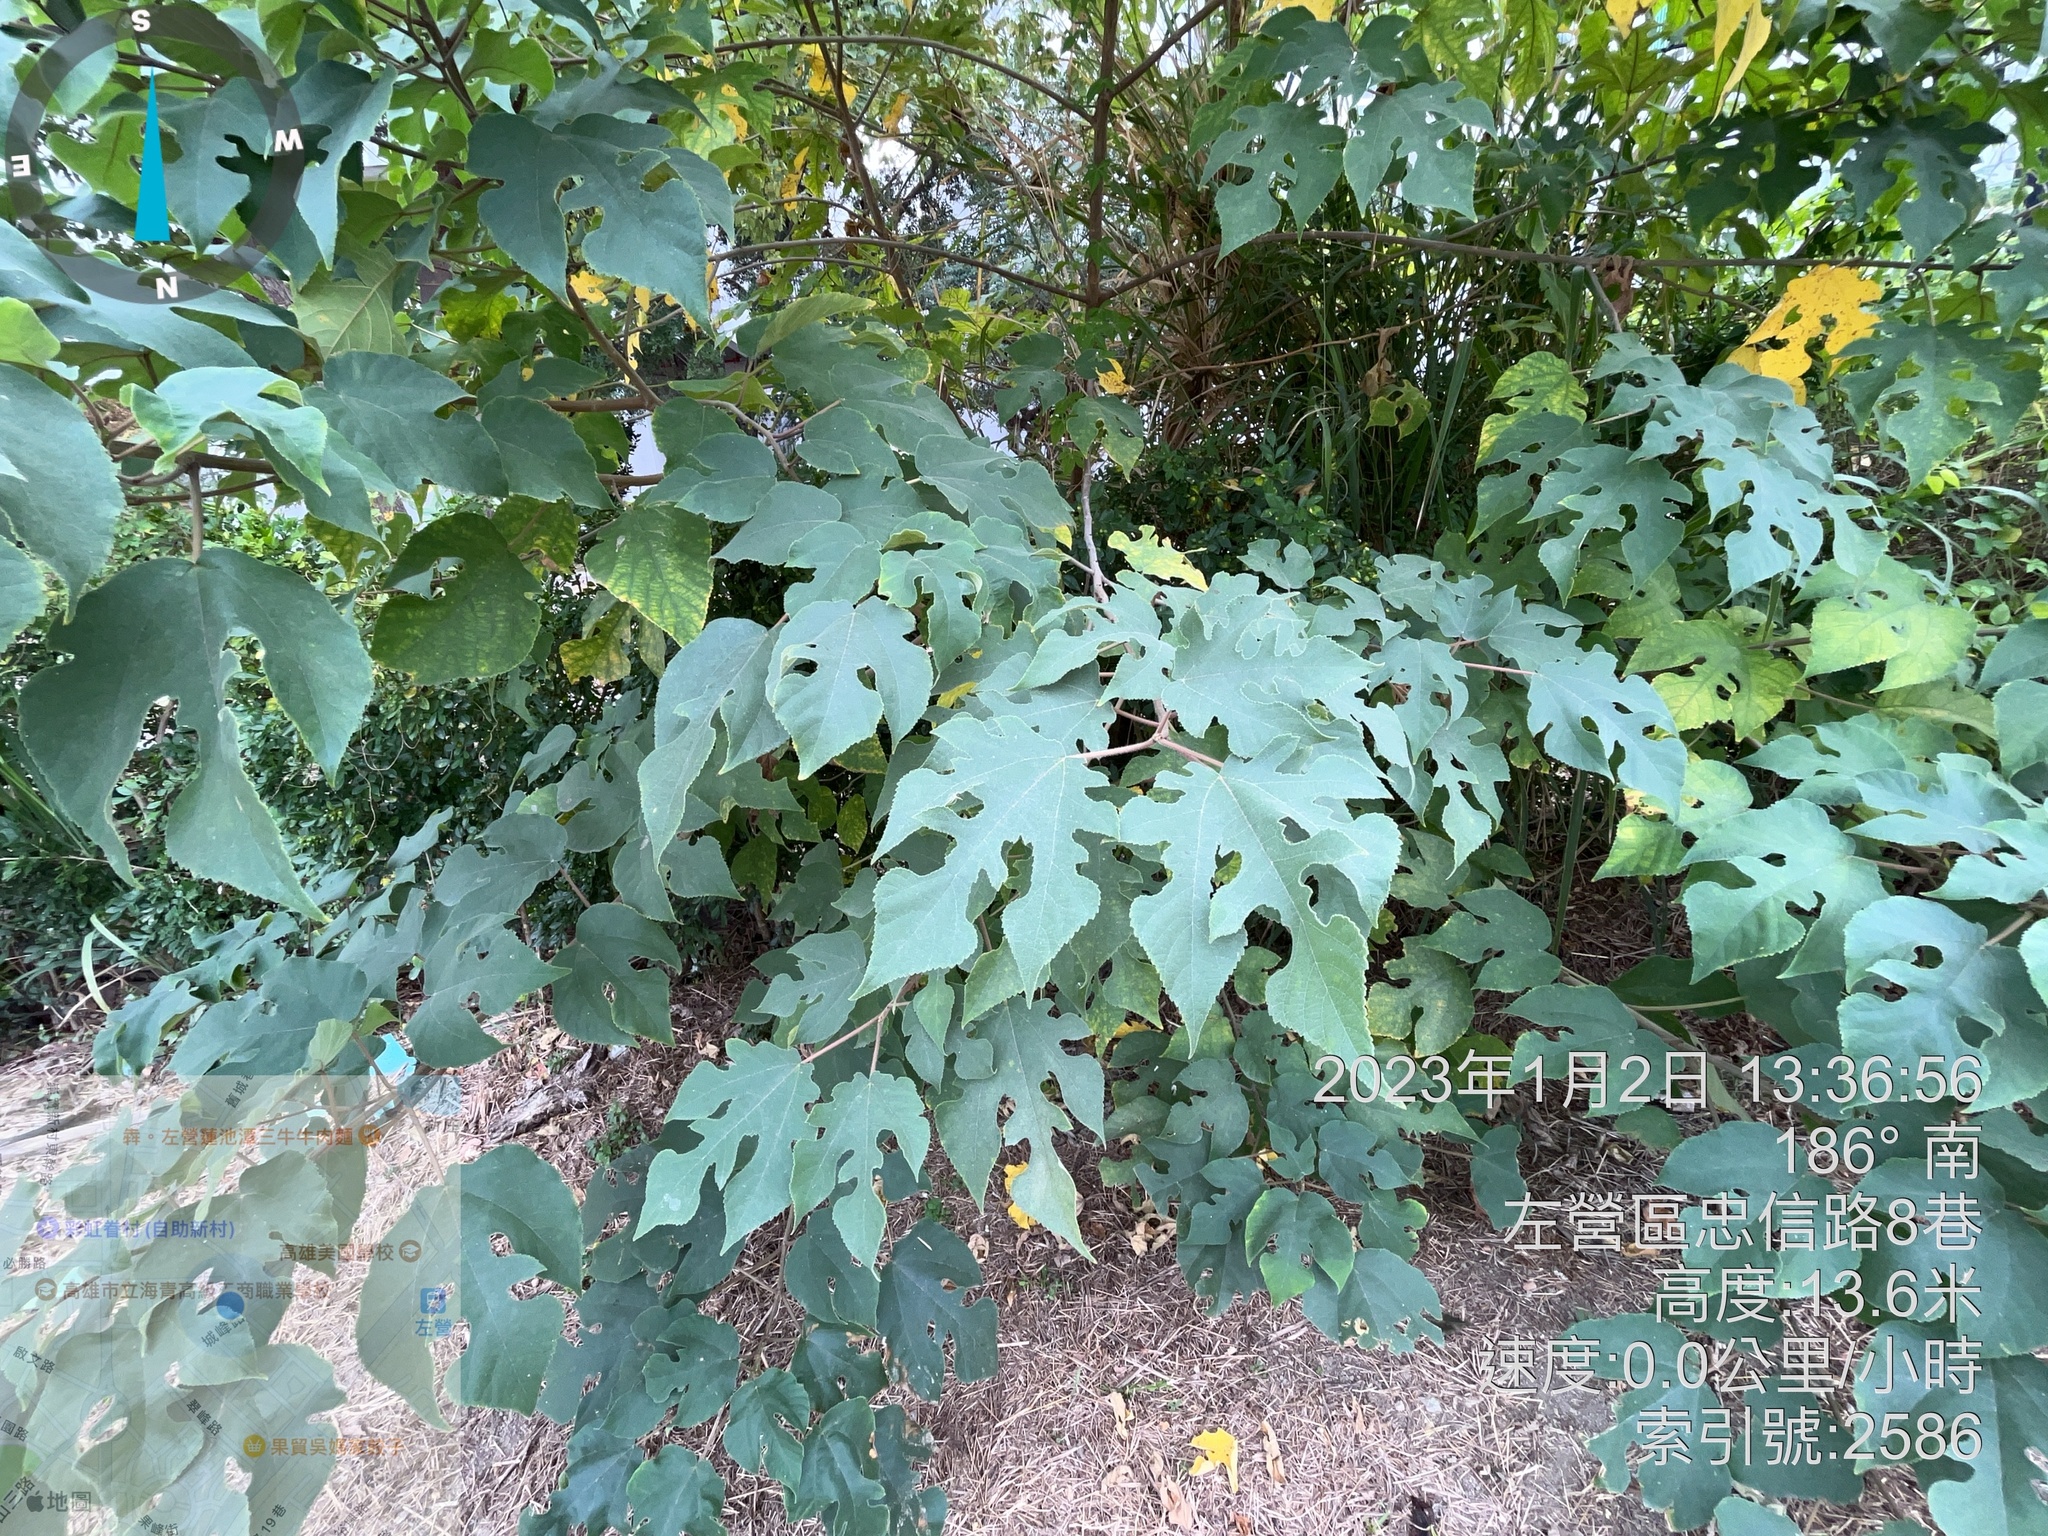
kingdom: Plantae
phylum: Tracheophyta
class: Magnoliopsida
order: Rosales
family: Moraceae
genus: Broussonetia
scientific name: Broussonetia papyrifera
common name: Paper mulberry
